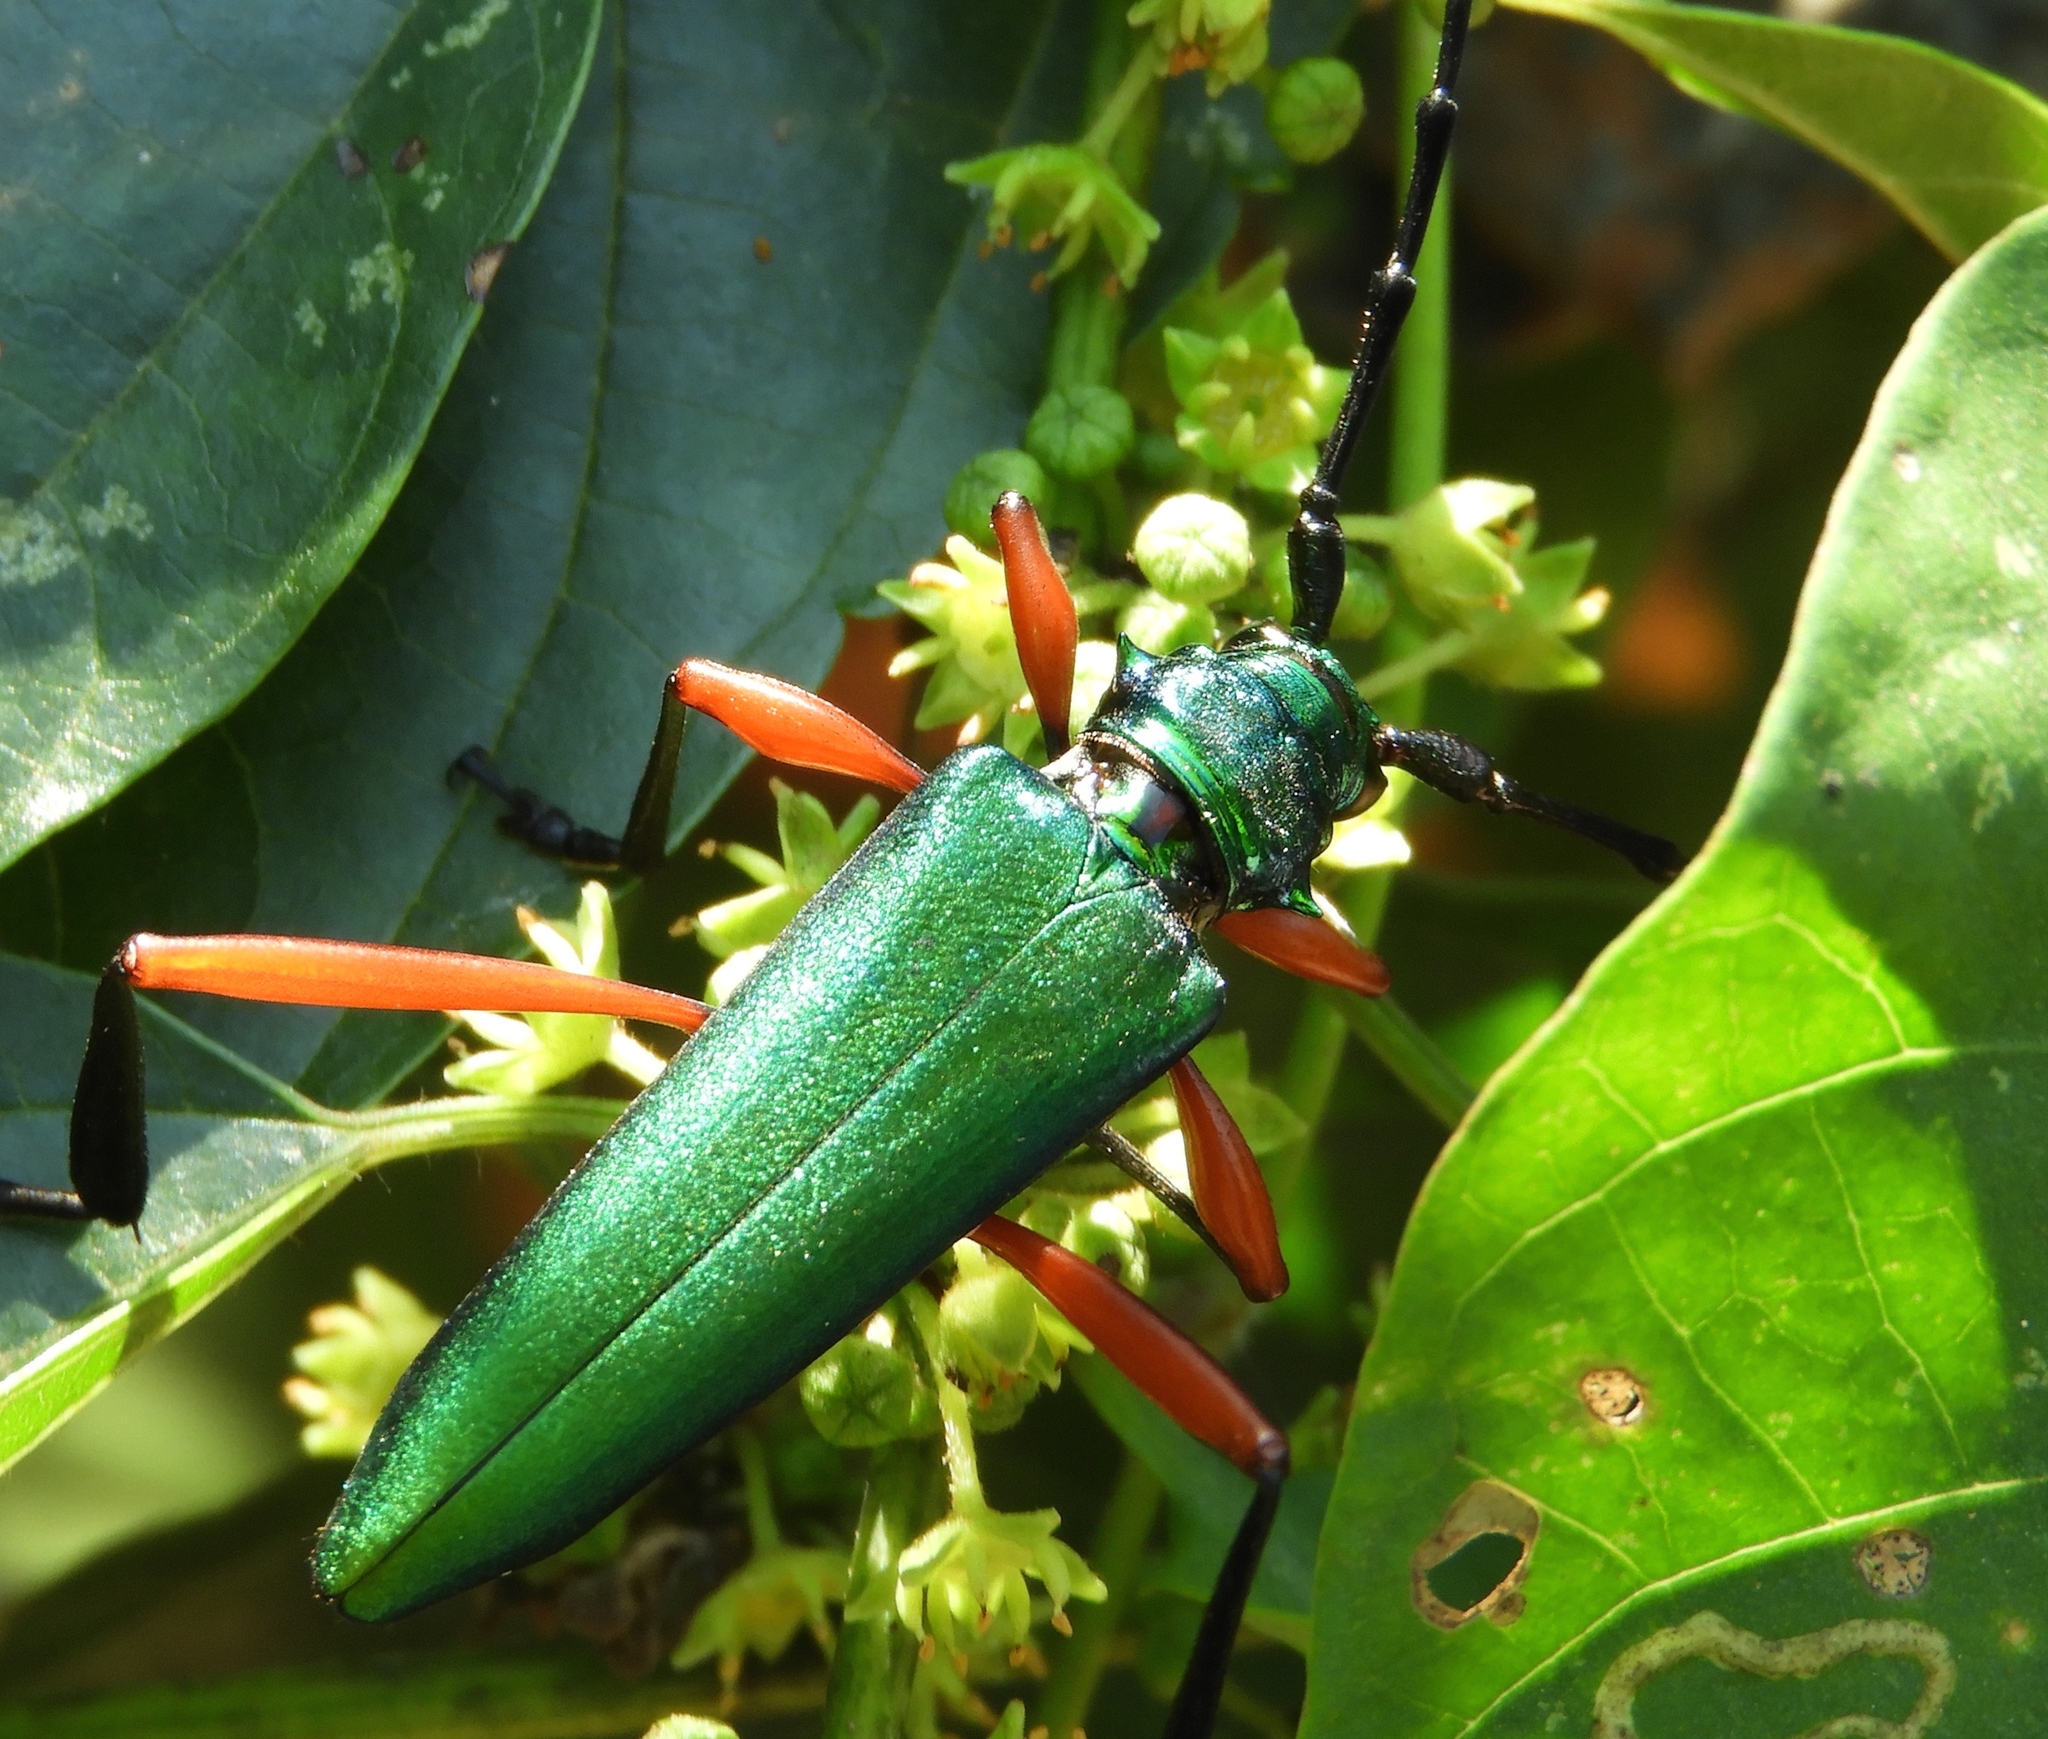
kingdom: Animalia
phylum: Arthropoda
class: Insecta
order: Coleoptera
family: Cerambycidae
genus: Plinthocoelium
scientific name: Plinthocoelium chilensis
